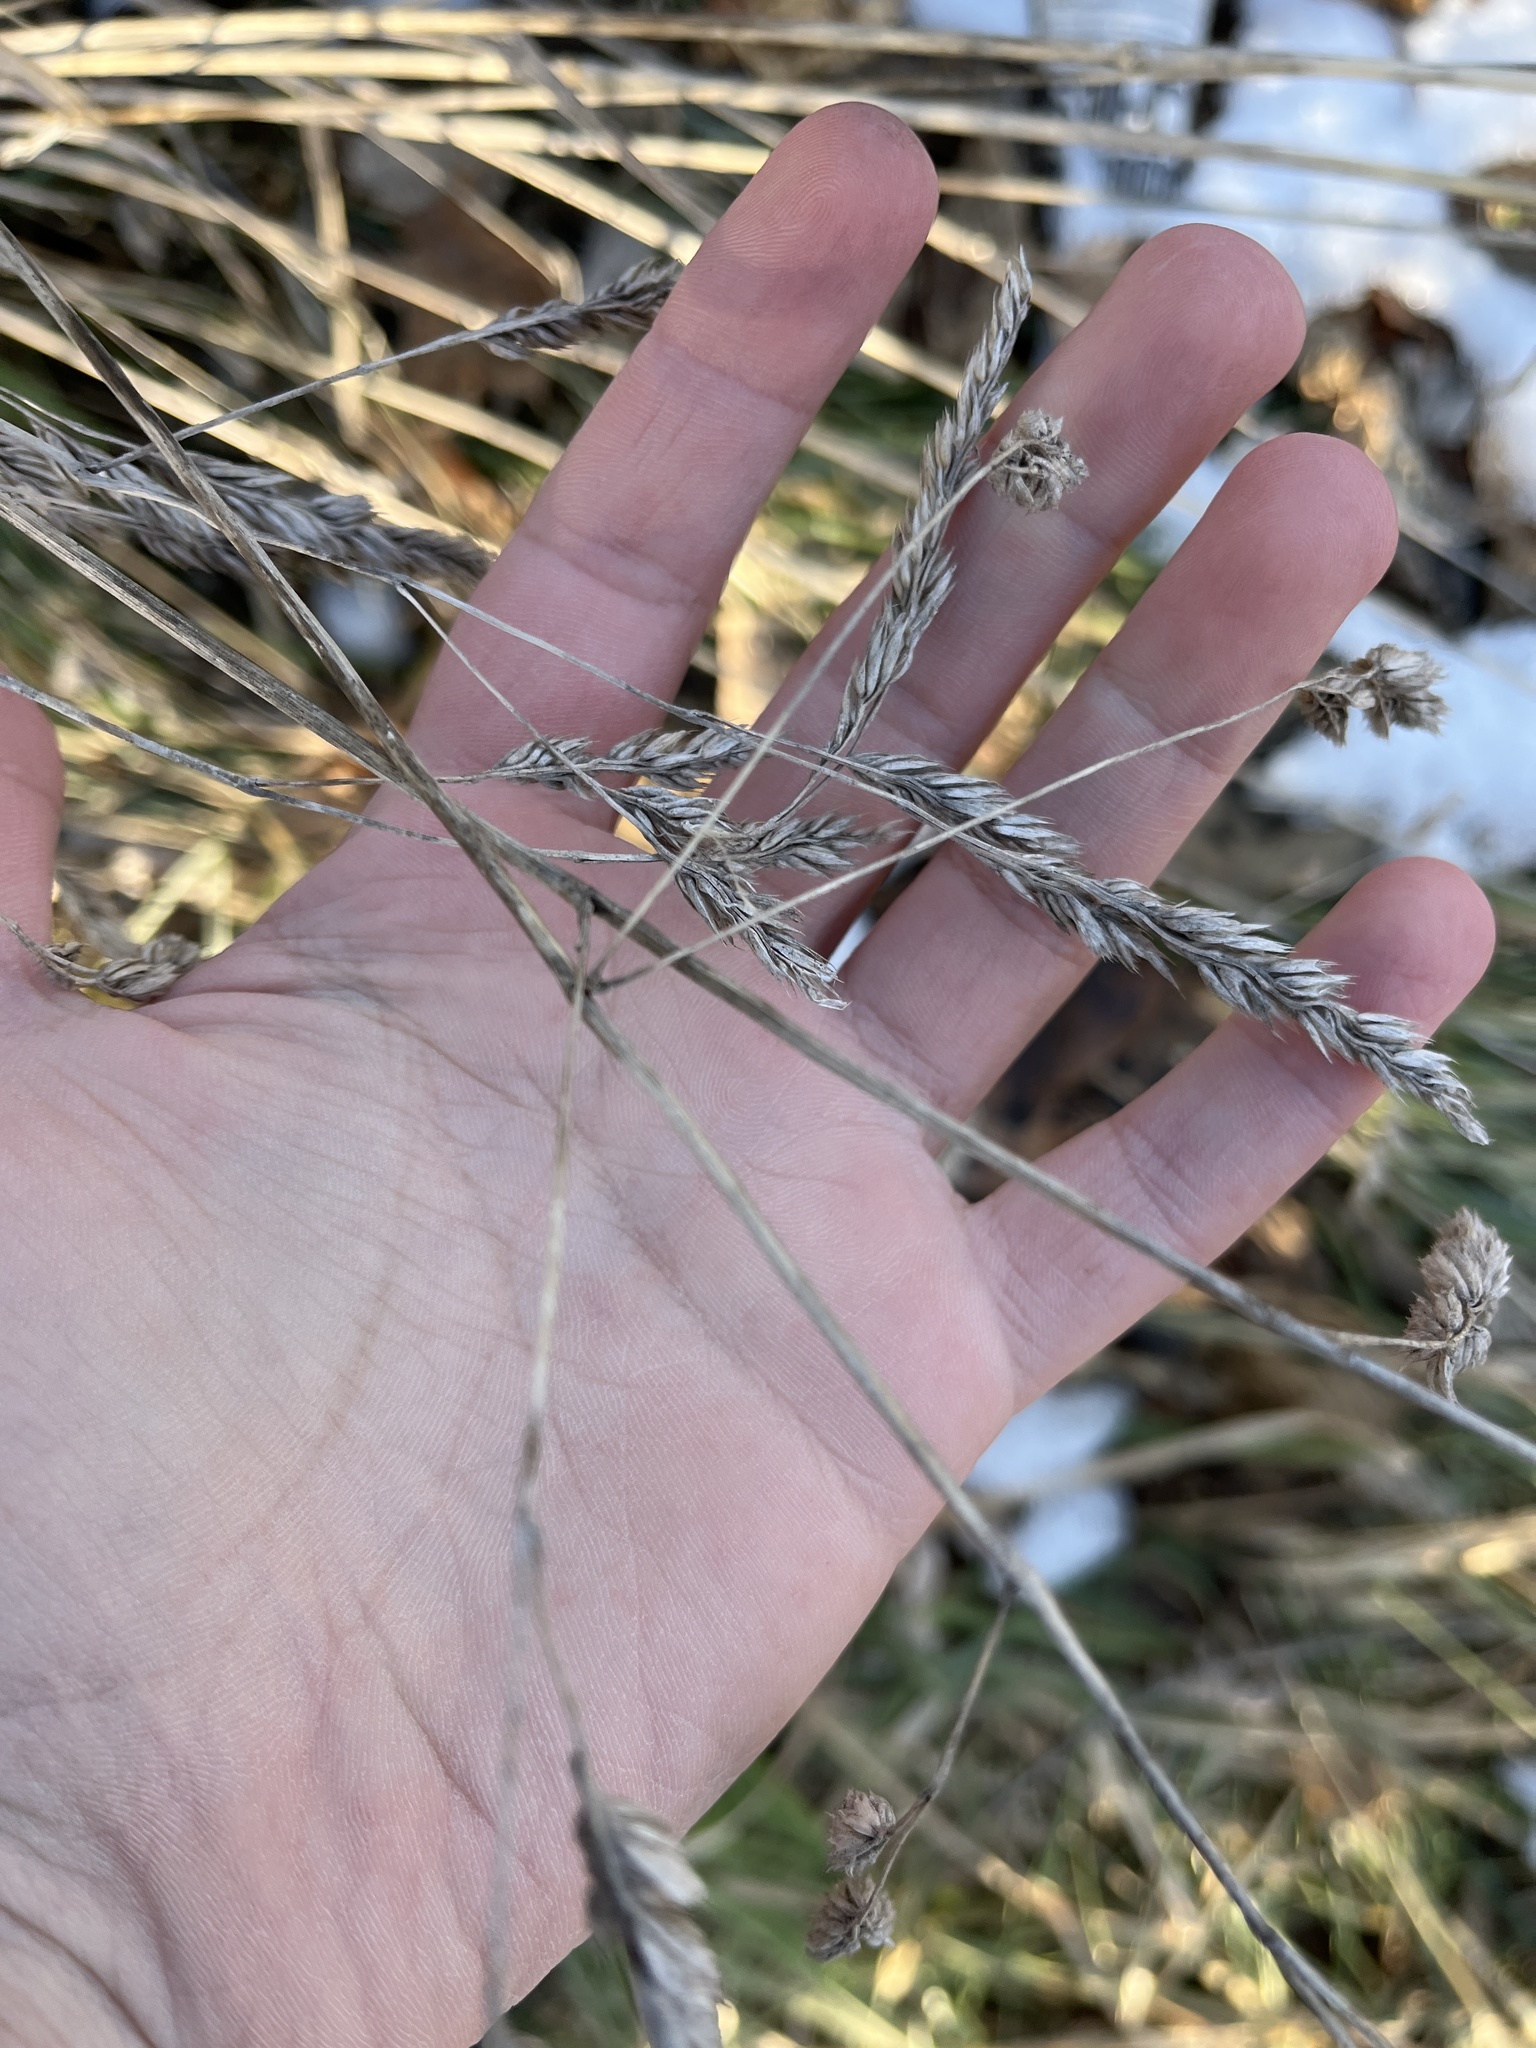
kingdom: Plantae
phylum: Tracheophyta
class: Liliopsida
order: Poales
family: Poaceae
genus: Dactylis
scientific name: Dactylis glomerata
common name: Orchardgrass
